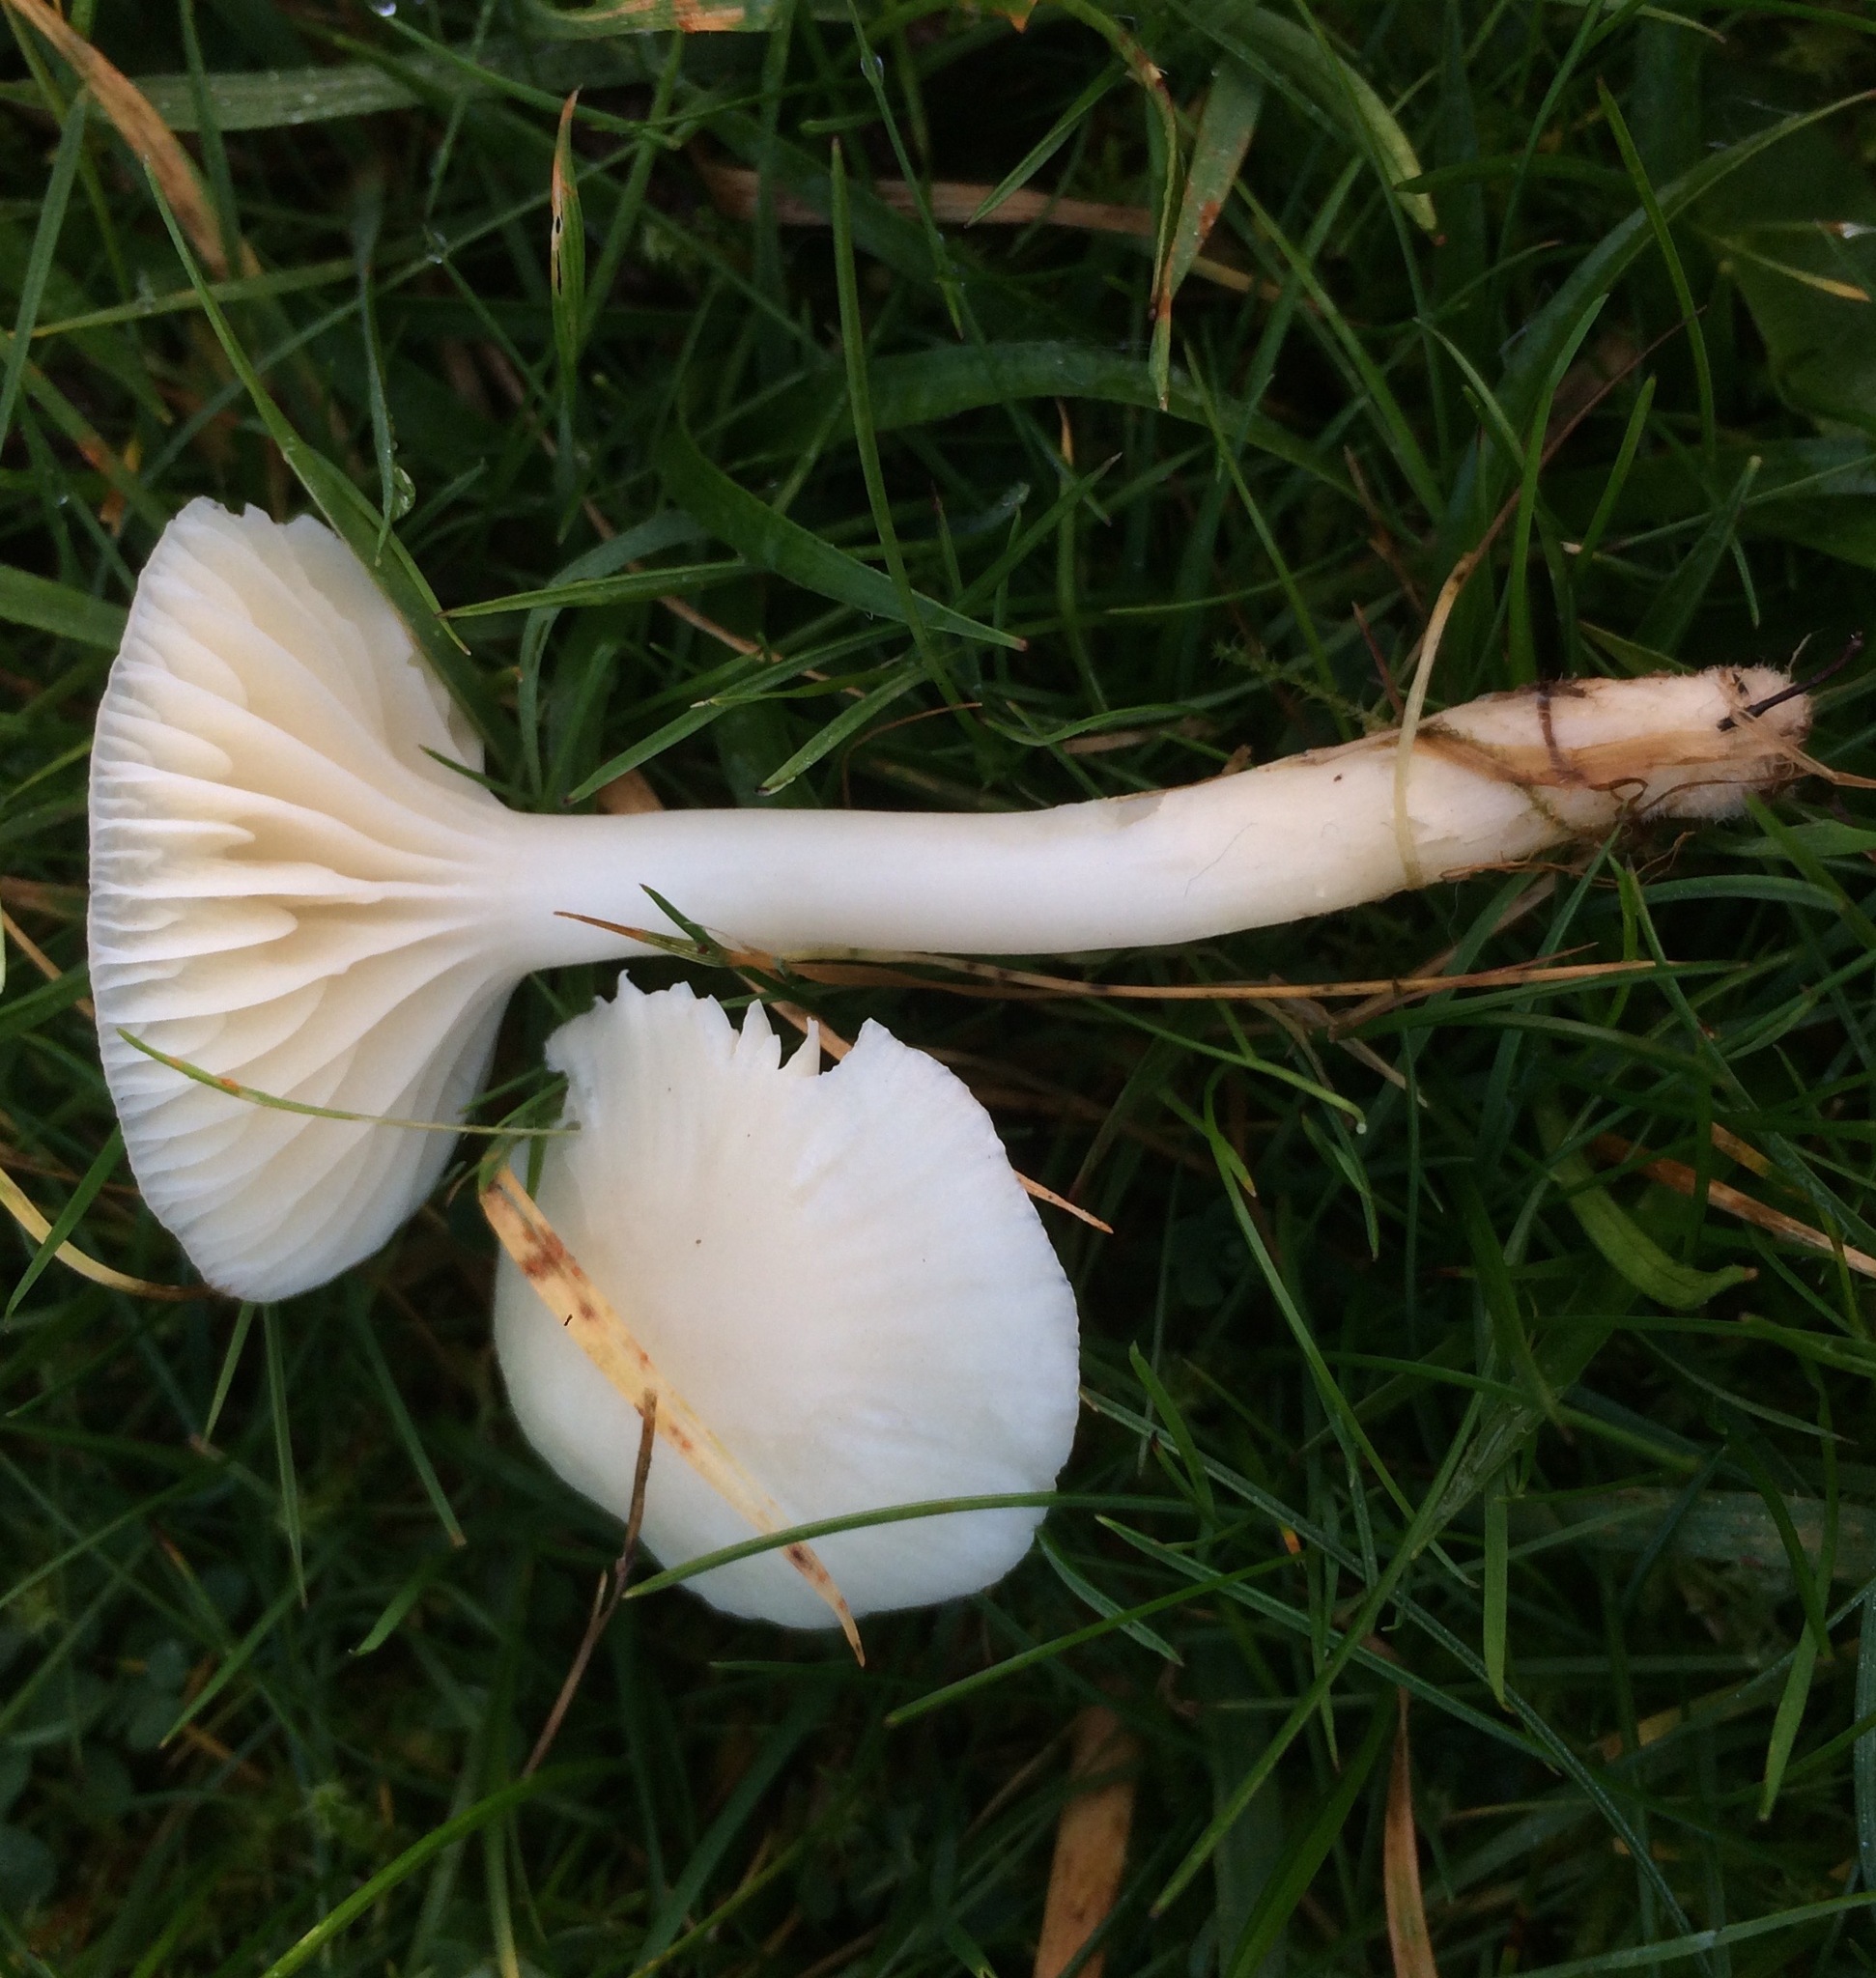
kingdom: Fungi
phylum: Basidiomycota
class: Agaricomycetes
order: Agaricales
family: Hygrophoraceae
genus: Cuphophyllus
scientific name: Cuphophyllus virgineus
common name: Snowy waxcap
